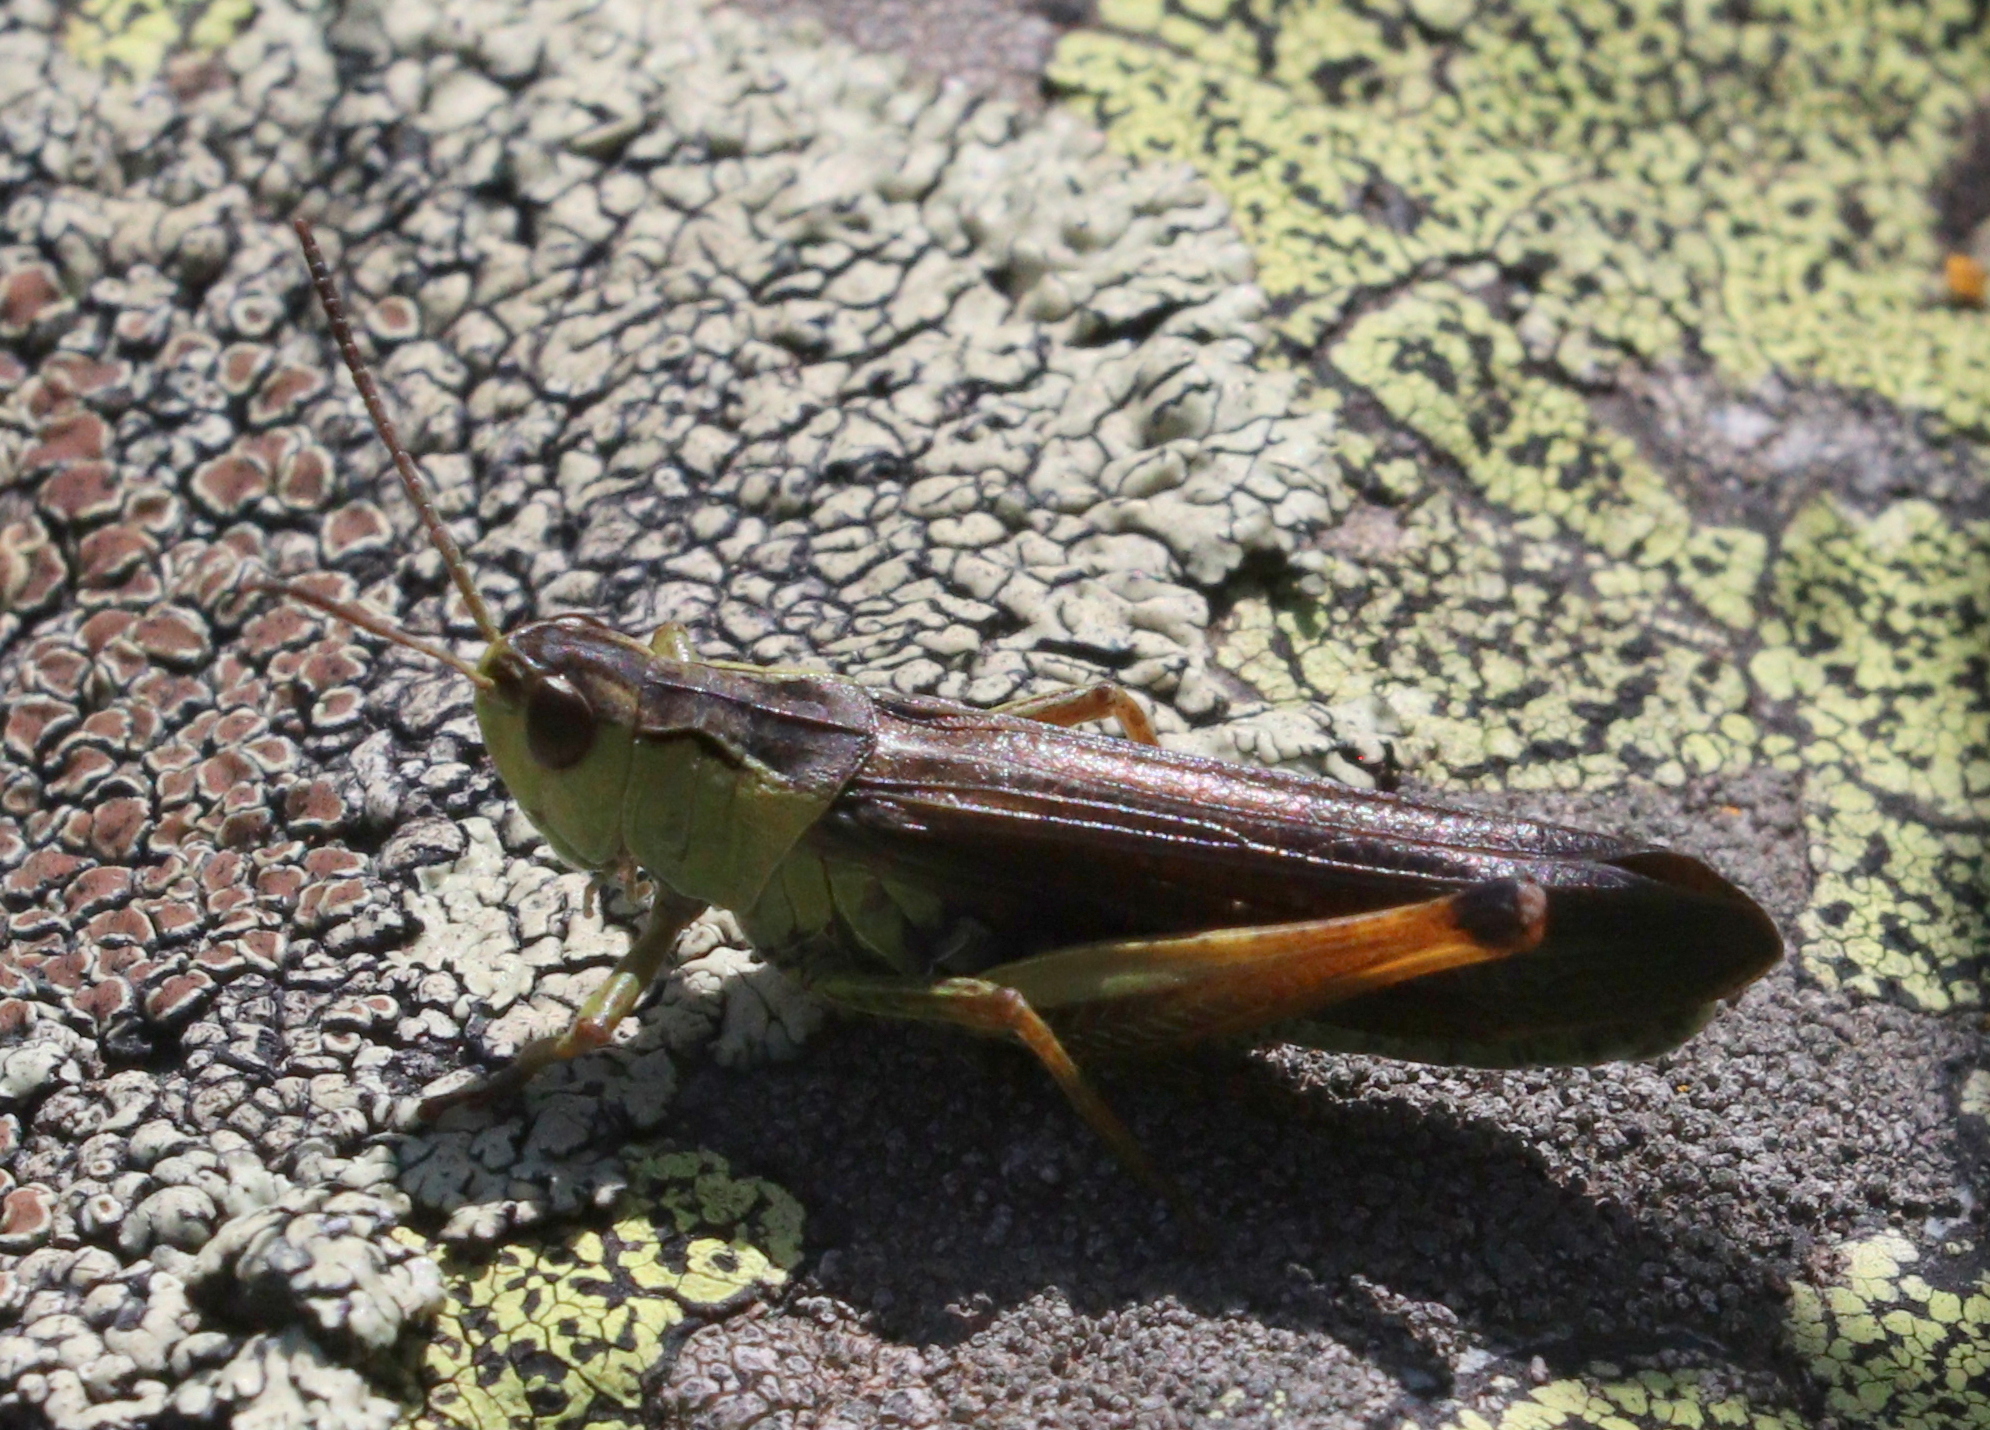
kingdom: Animalia
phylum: Arthropoda
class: Insecta
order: Orthoptera
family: Acrididae
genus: Stauroderus
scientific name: Stauroderus scalaris
